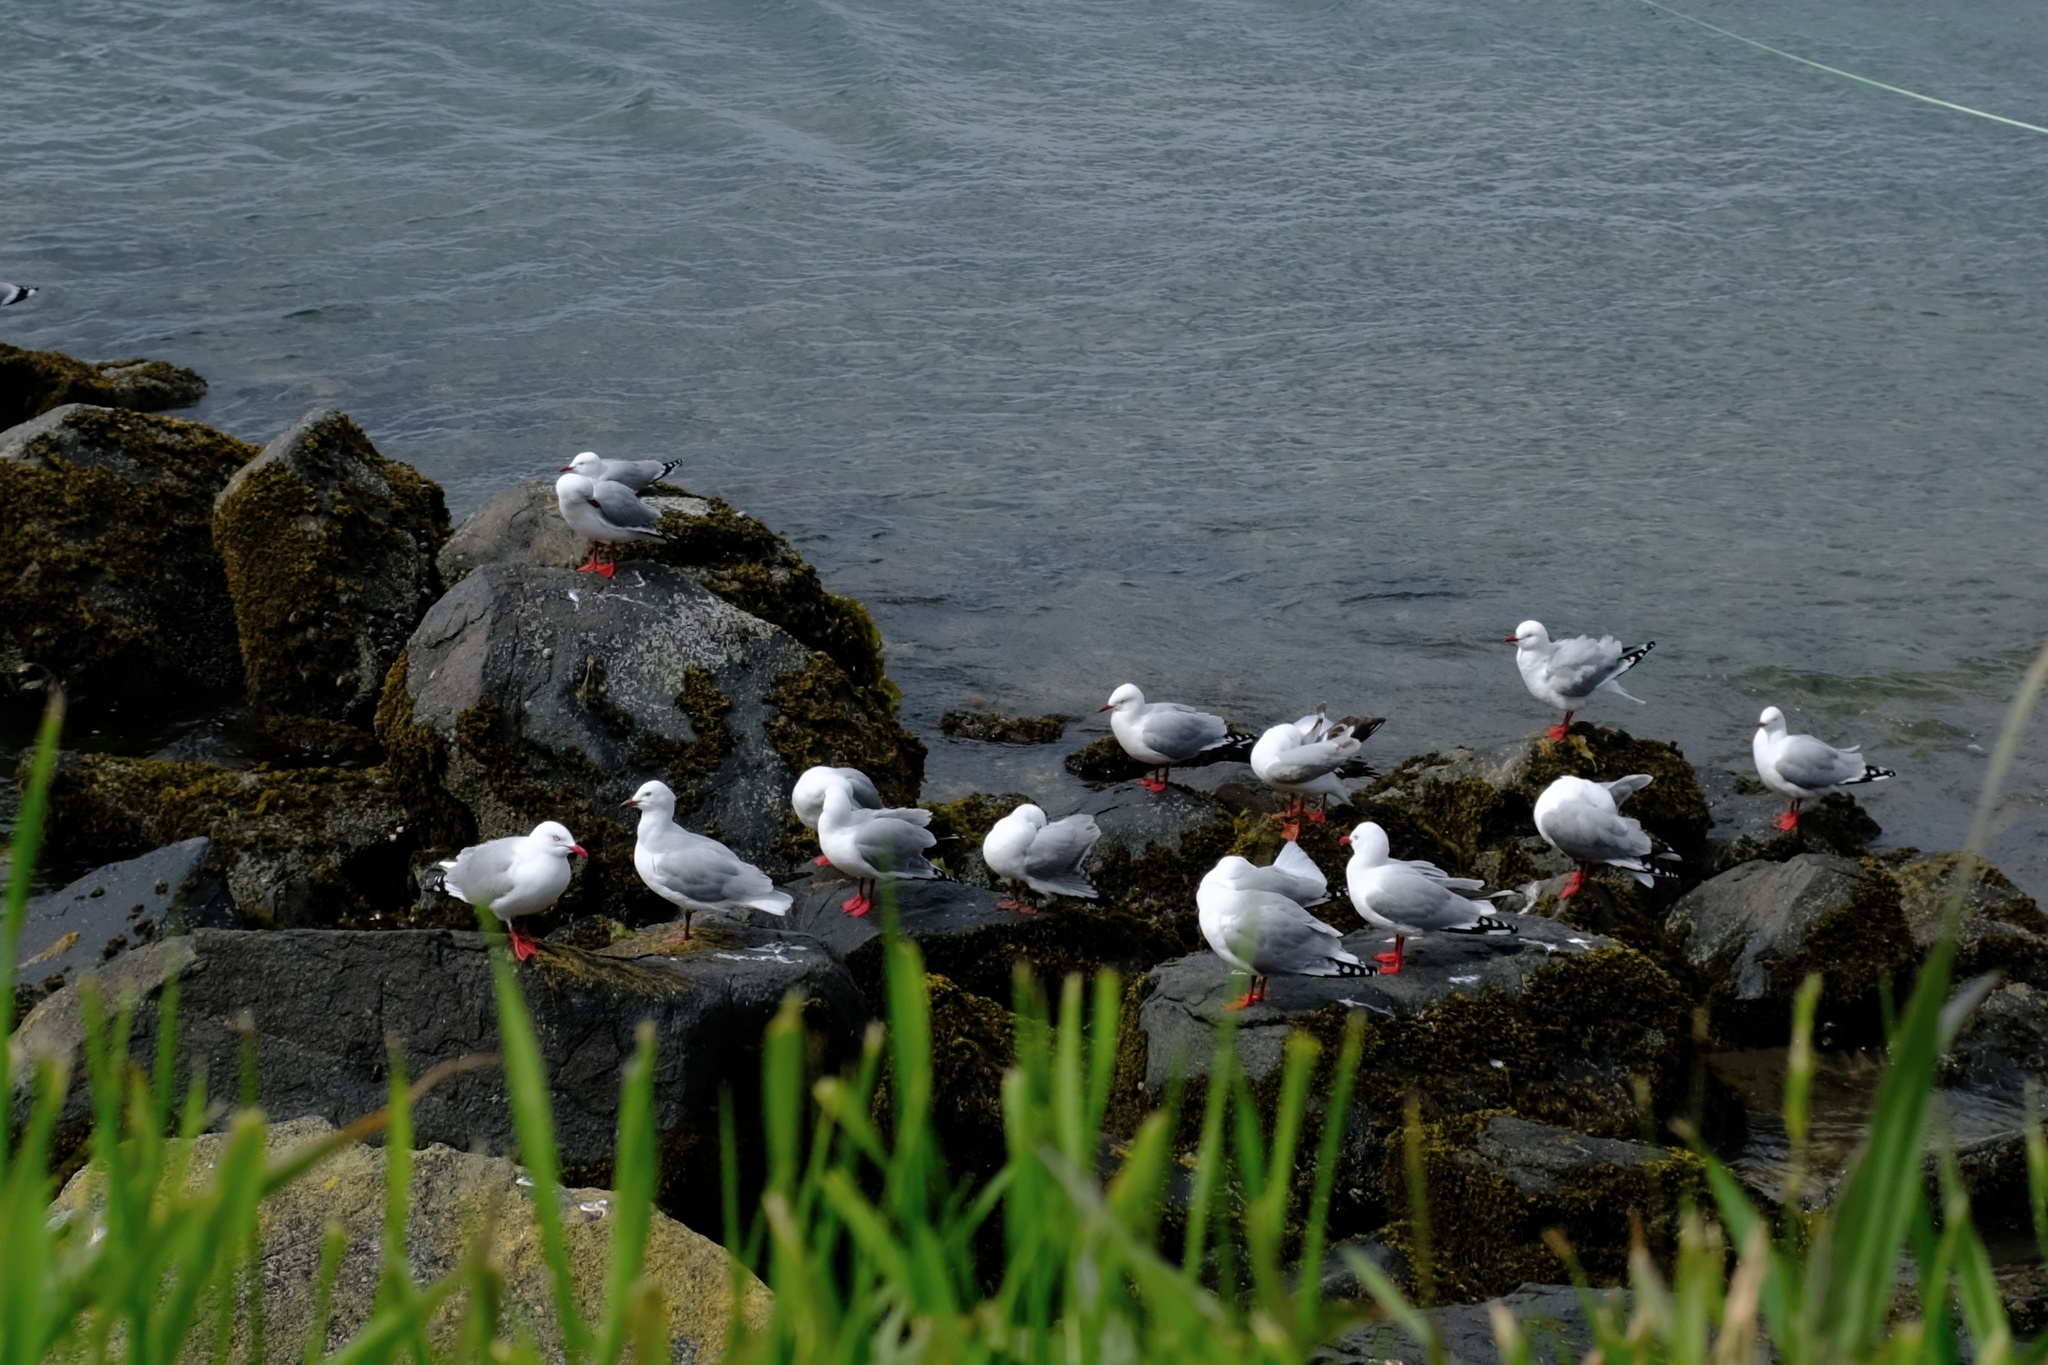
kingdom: Animalia
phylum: Chordata
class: Aves
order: Charadriiformes
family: Laridae
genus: Chroicocephalus
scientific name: Chroicocephalus novaehollandiae
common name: Silver gull
